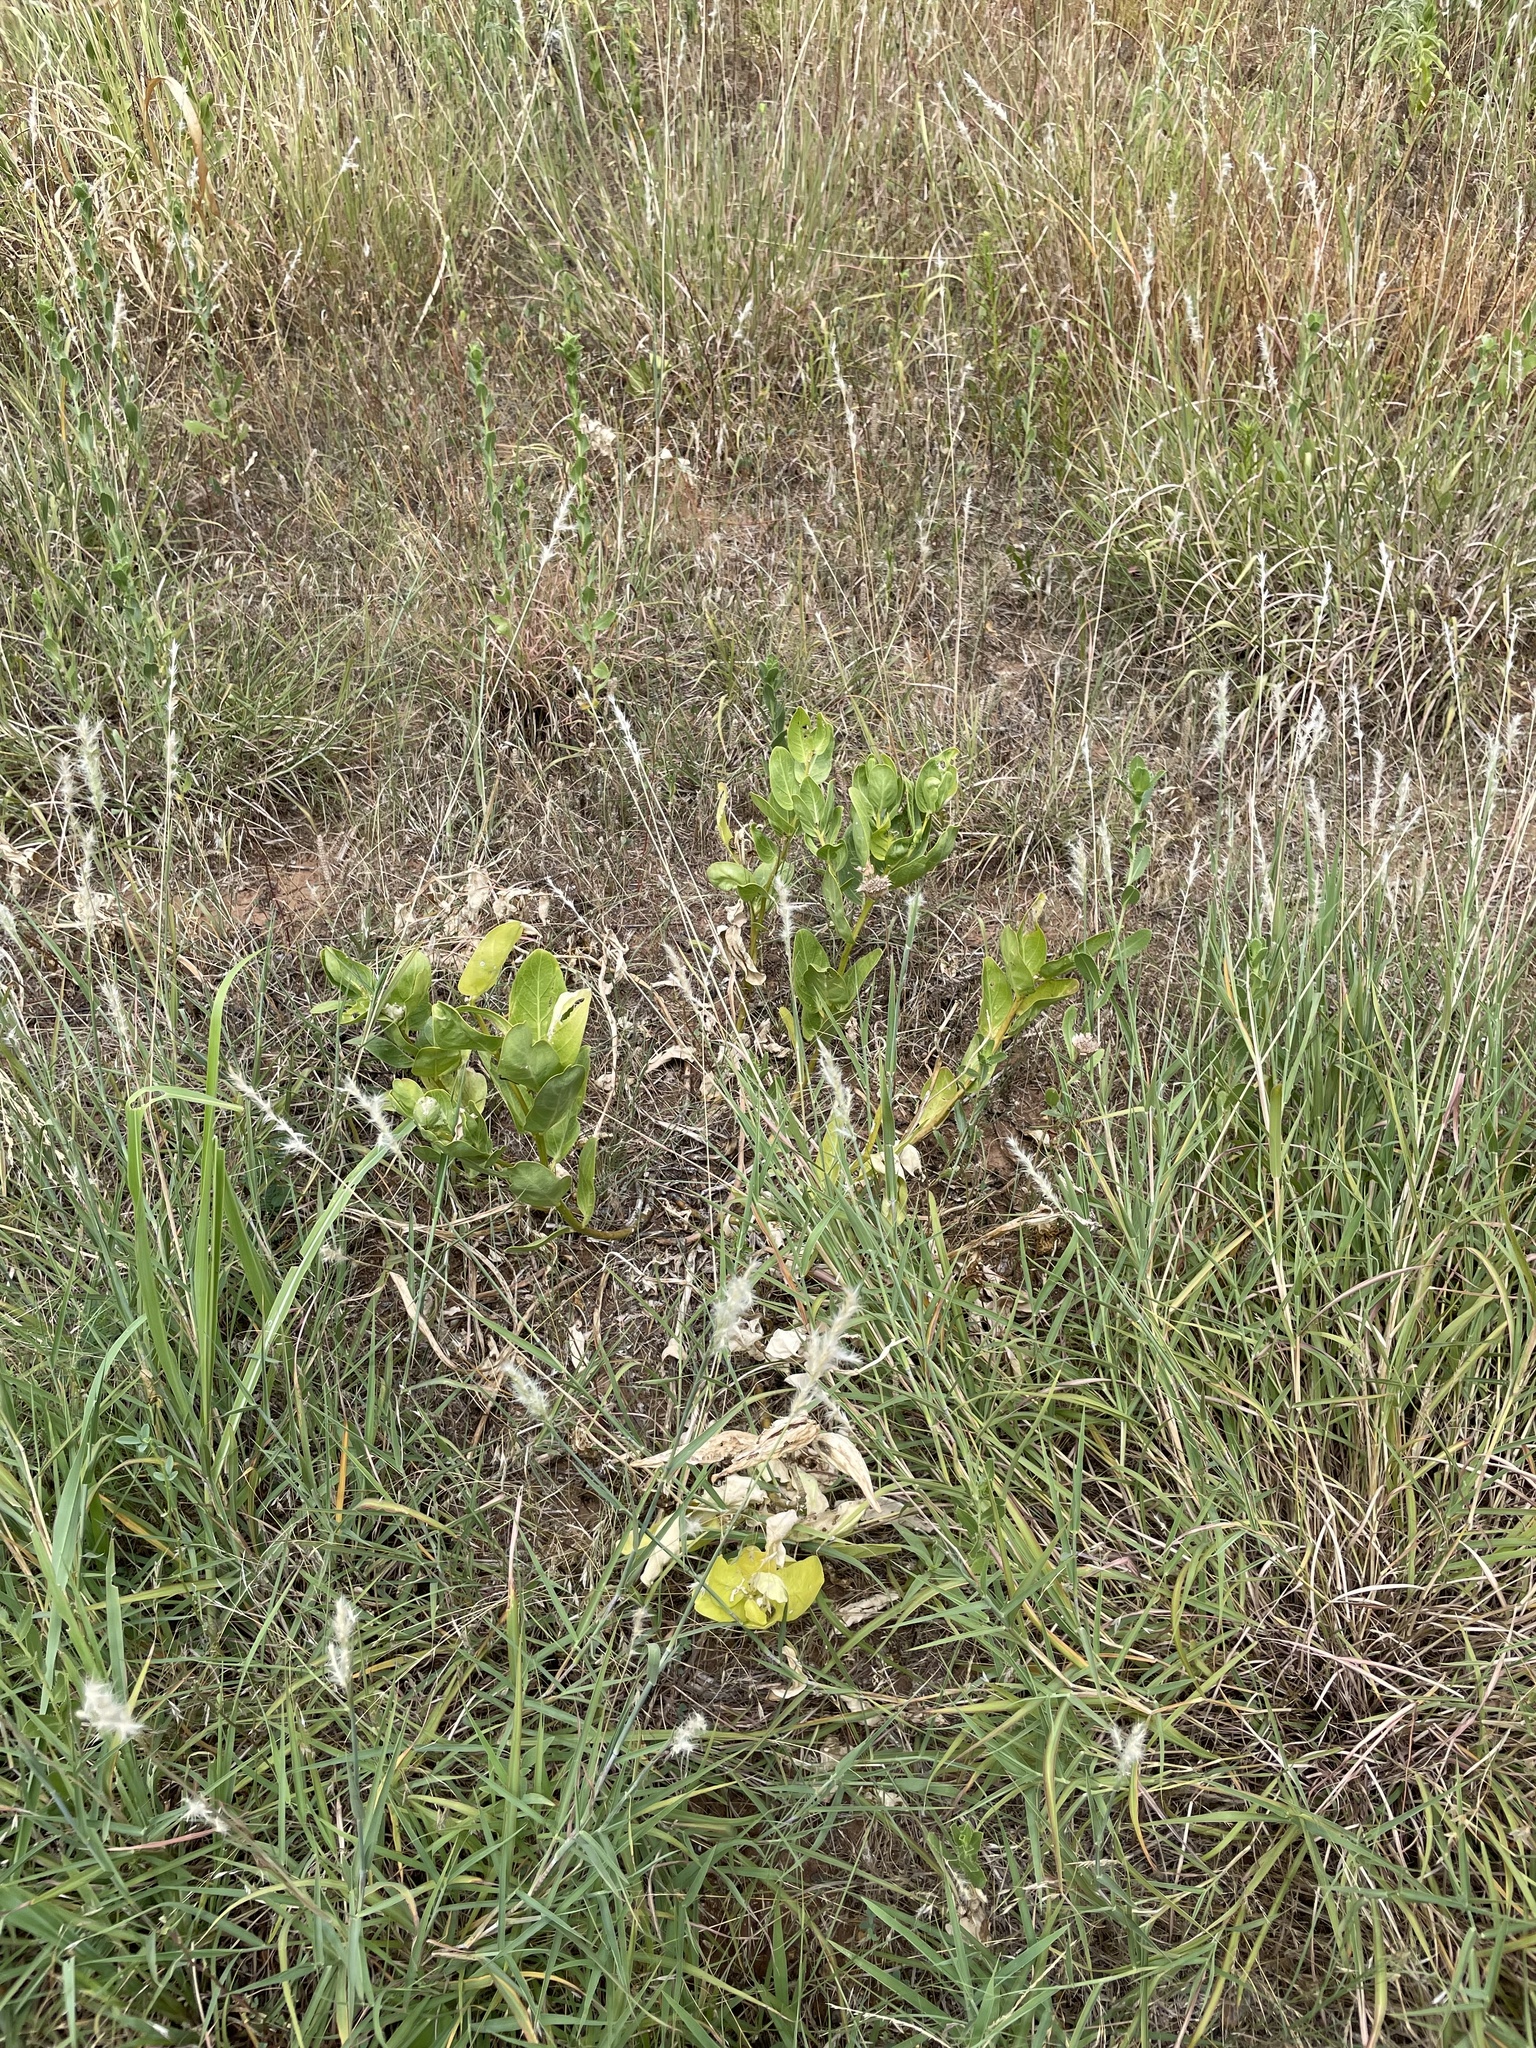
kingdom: Plantae
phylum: Tracheophyta
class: Magnoliopsida
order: Gentianales
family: Apocynaceae
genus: Asclepias
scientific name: Asclepias viridis
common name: Antelope-horns
